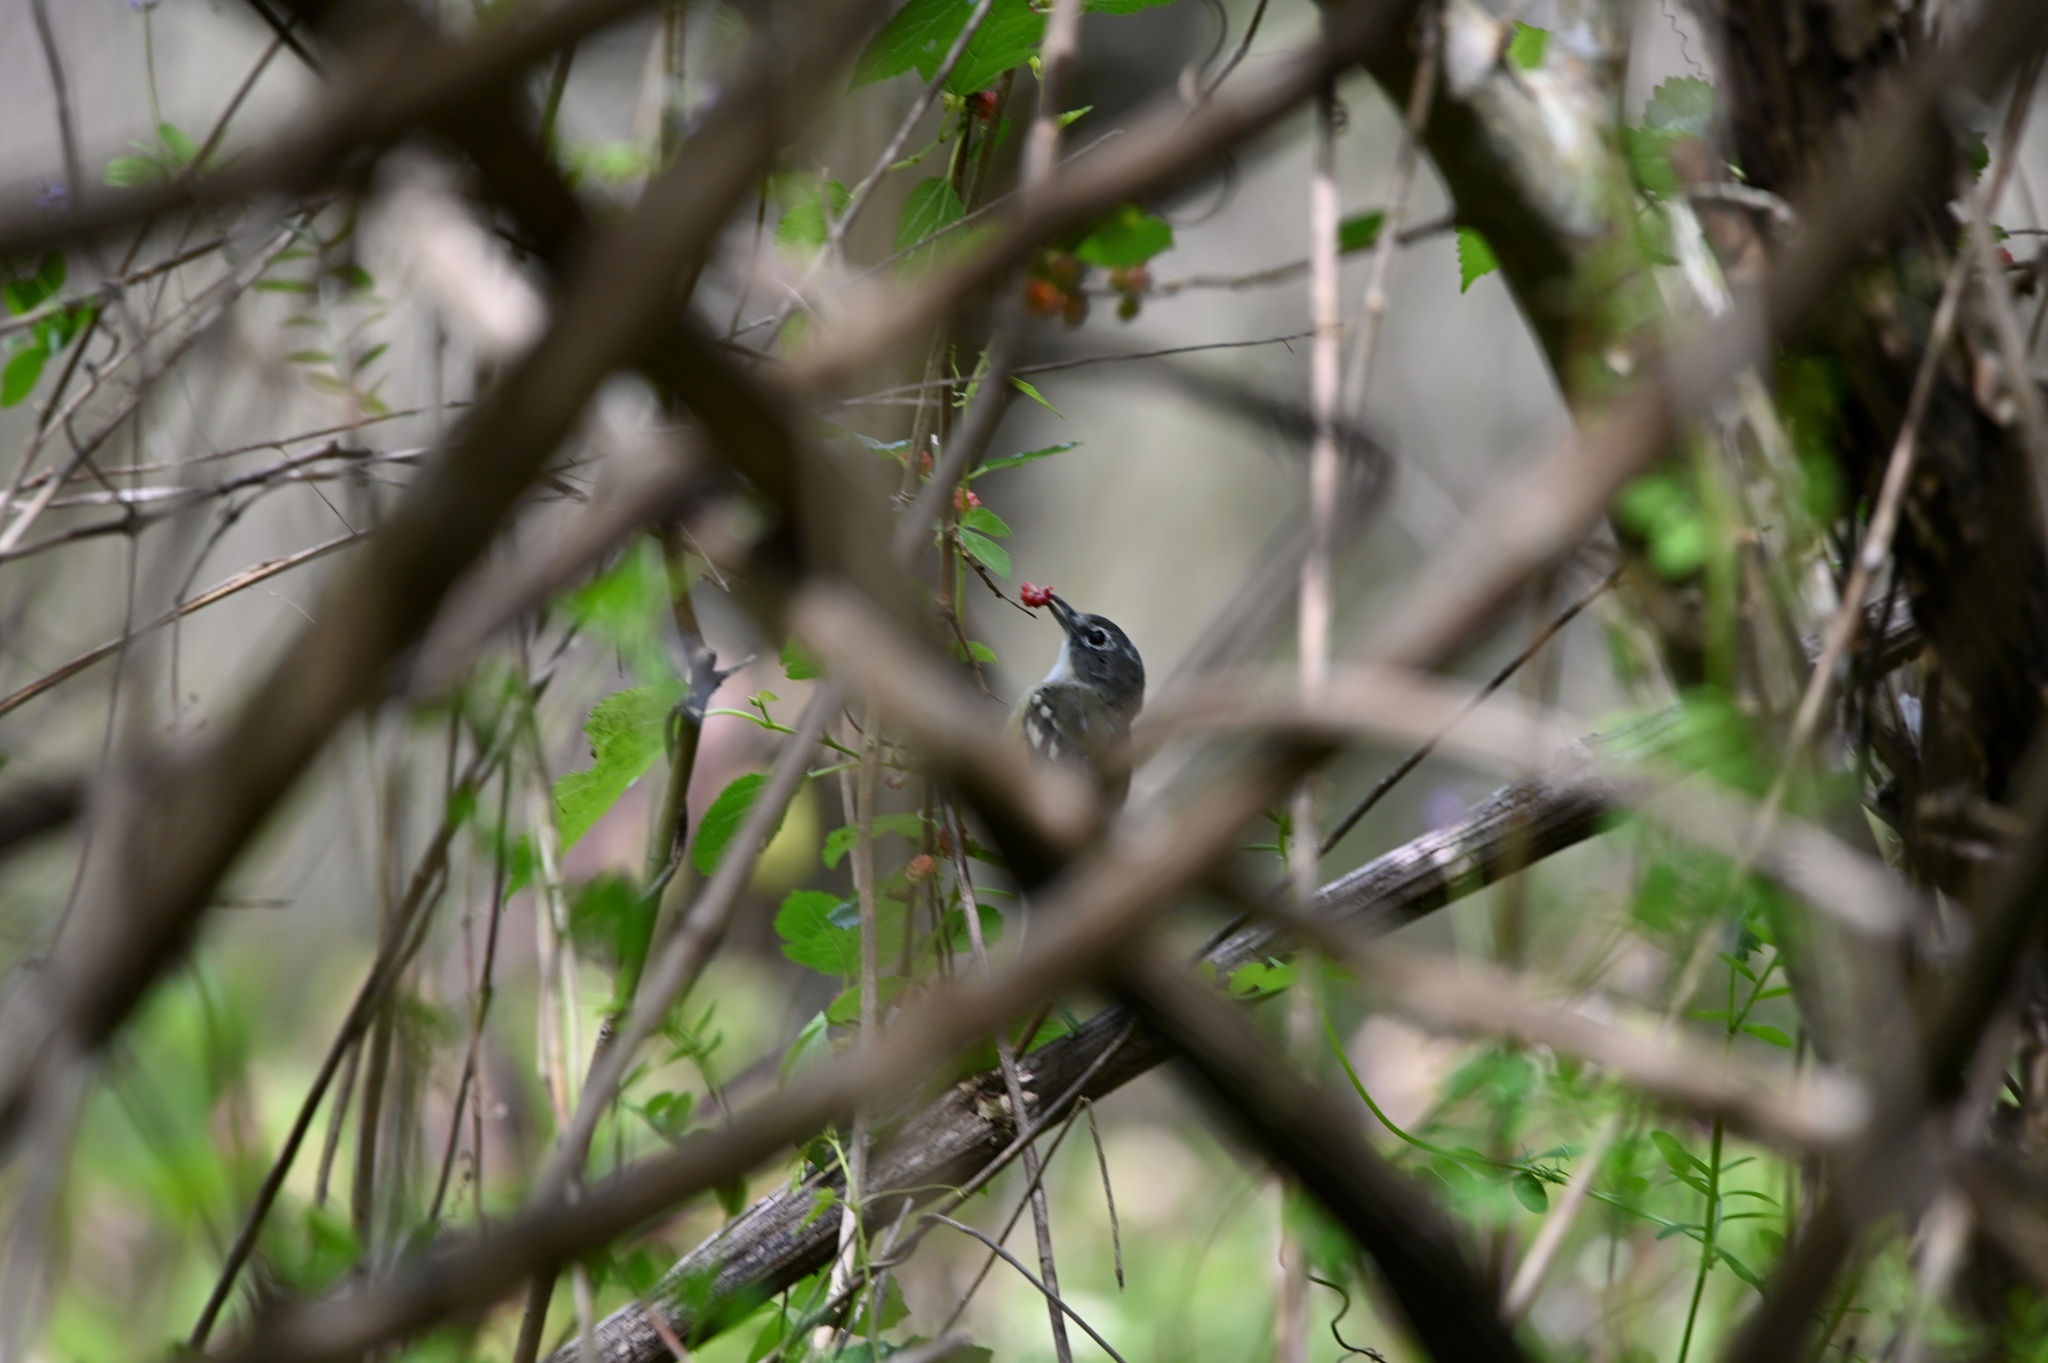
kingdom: Animalia
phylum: Chordata
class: Aves
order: Passeriformes
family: Vireonidae
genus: Vireo
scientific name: Vireo solitarius
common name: Blue-headed vireo
